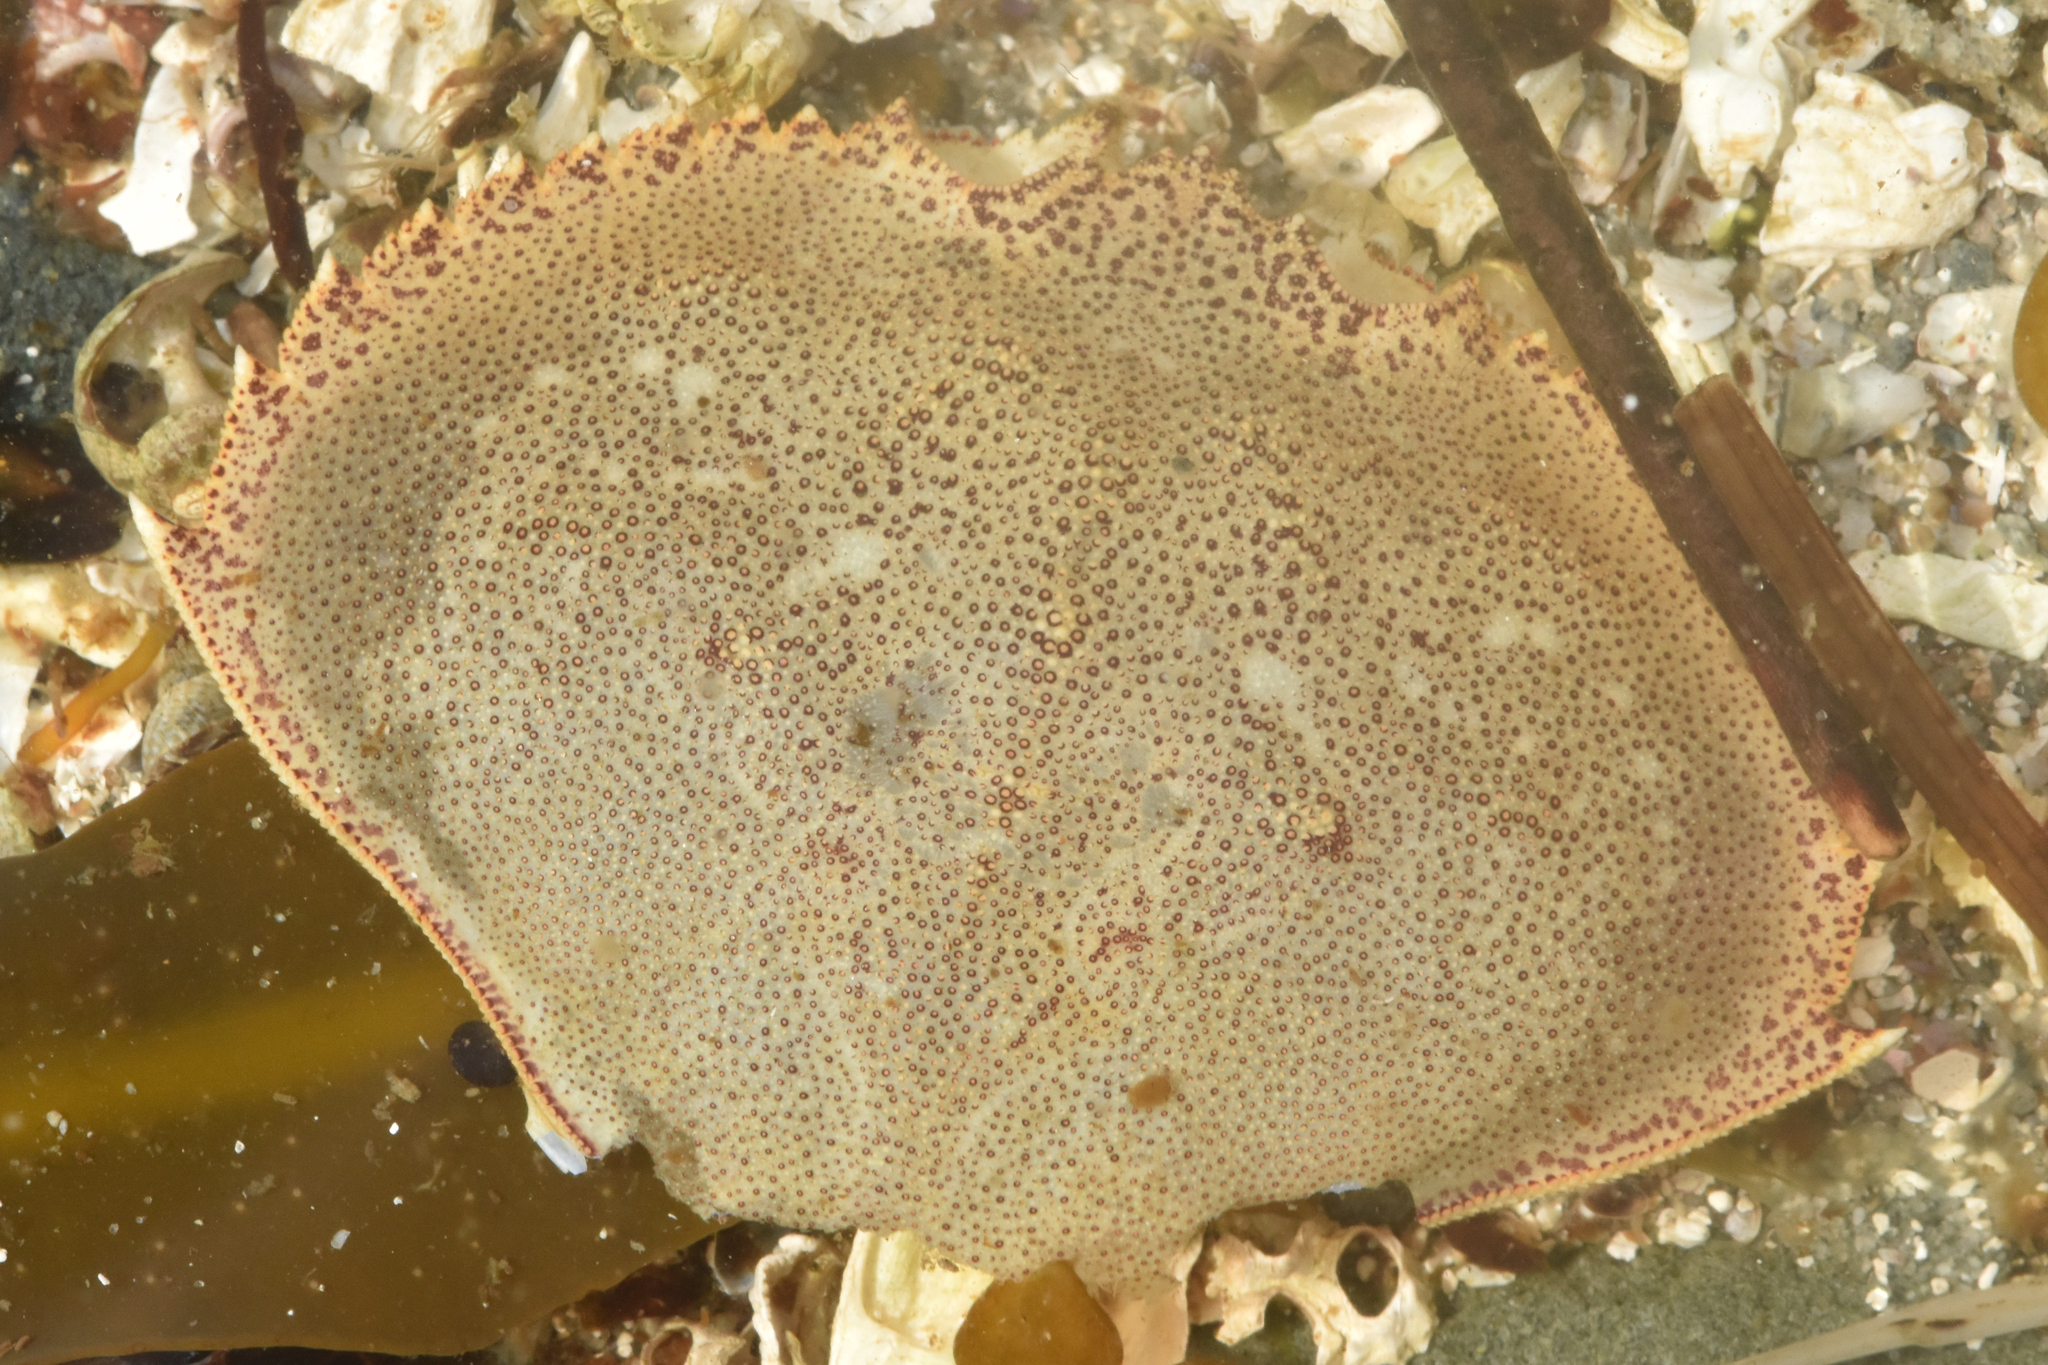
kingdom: Animalia
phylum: Arthropoda
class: Malacostraca
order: Decapoda
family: Cancridae
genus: Metacarcinus
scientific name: Metacarcinus magister
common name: Californian crab
